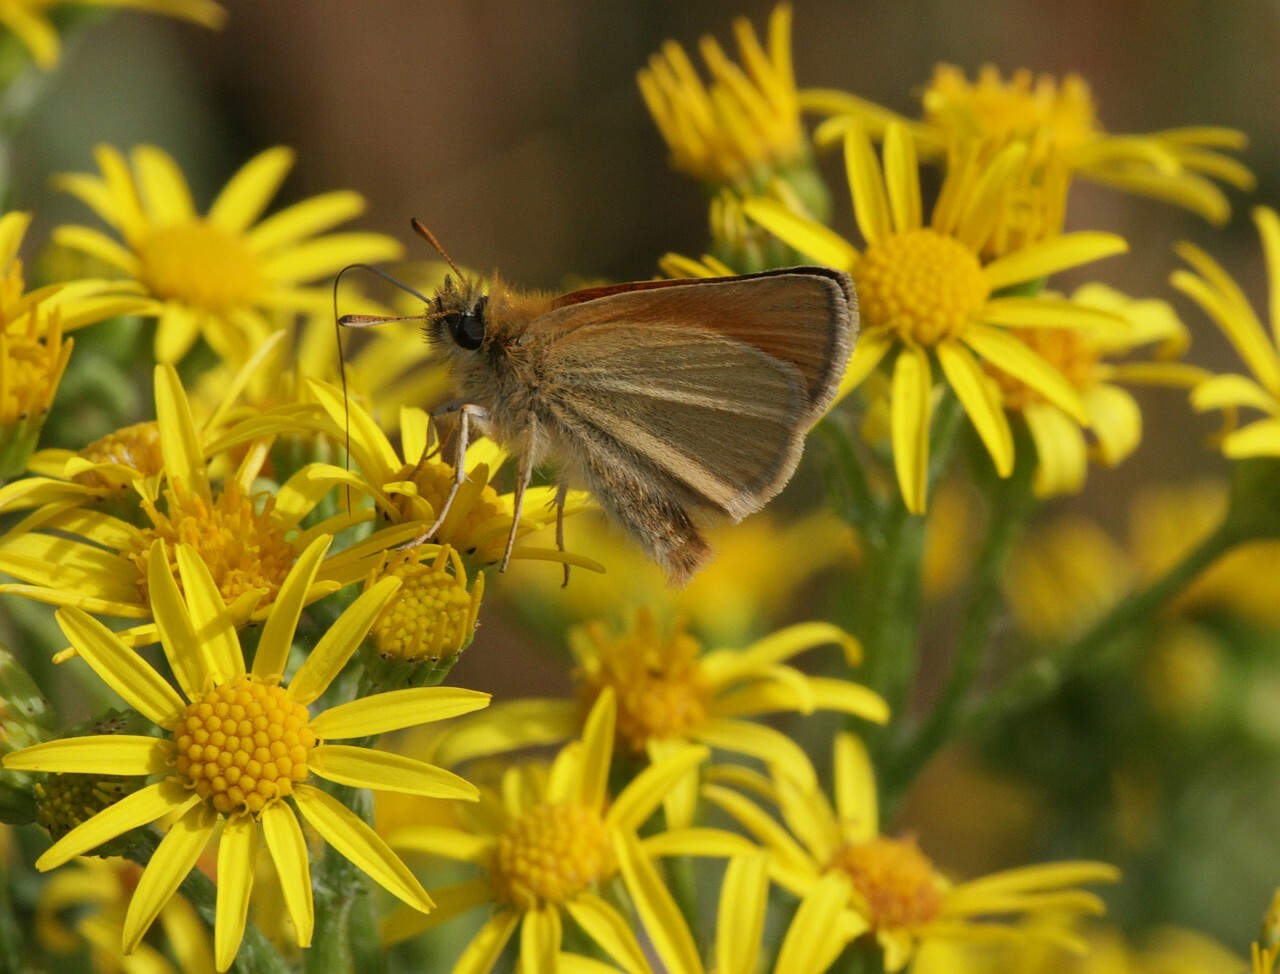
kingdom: Animalia
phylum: Arthropoda
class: Insecta
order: Lepidoptera
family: Hesperiidae
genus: Thymelicus
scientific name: Thymelicus lineola
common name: Essex skipper
